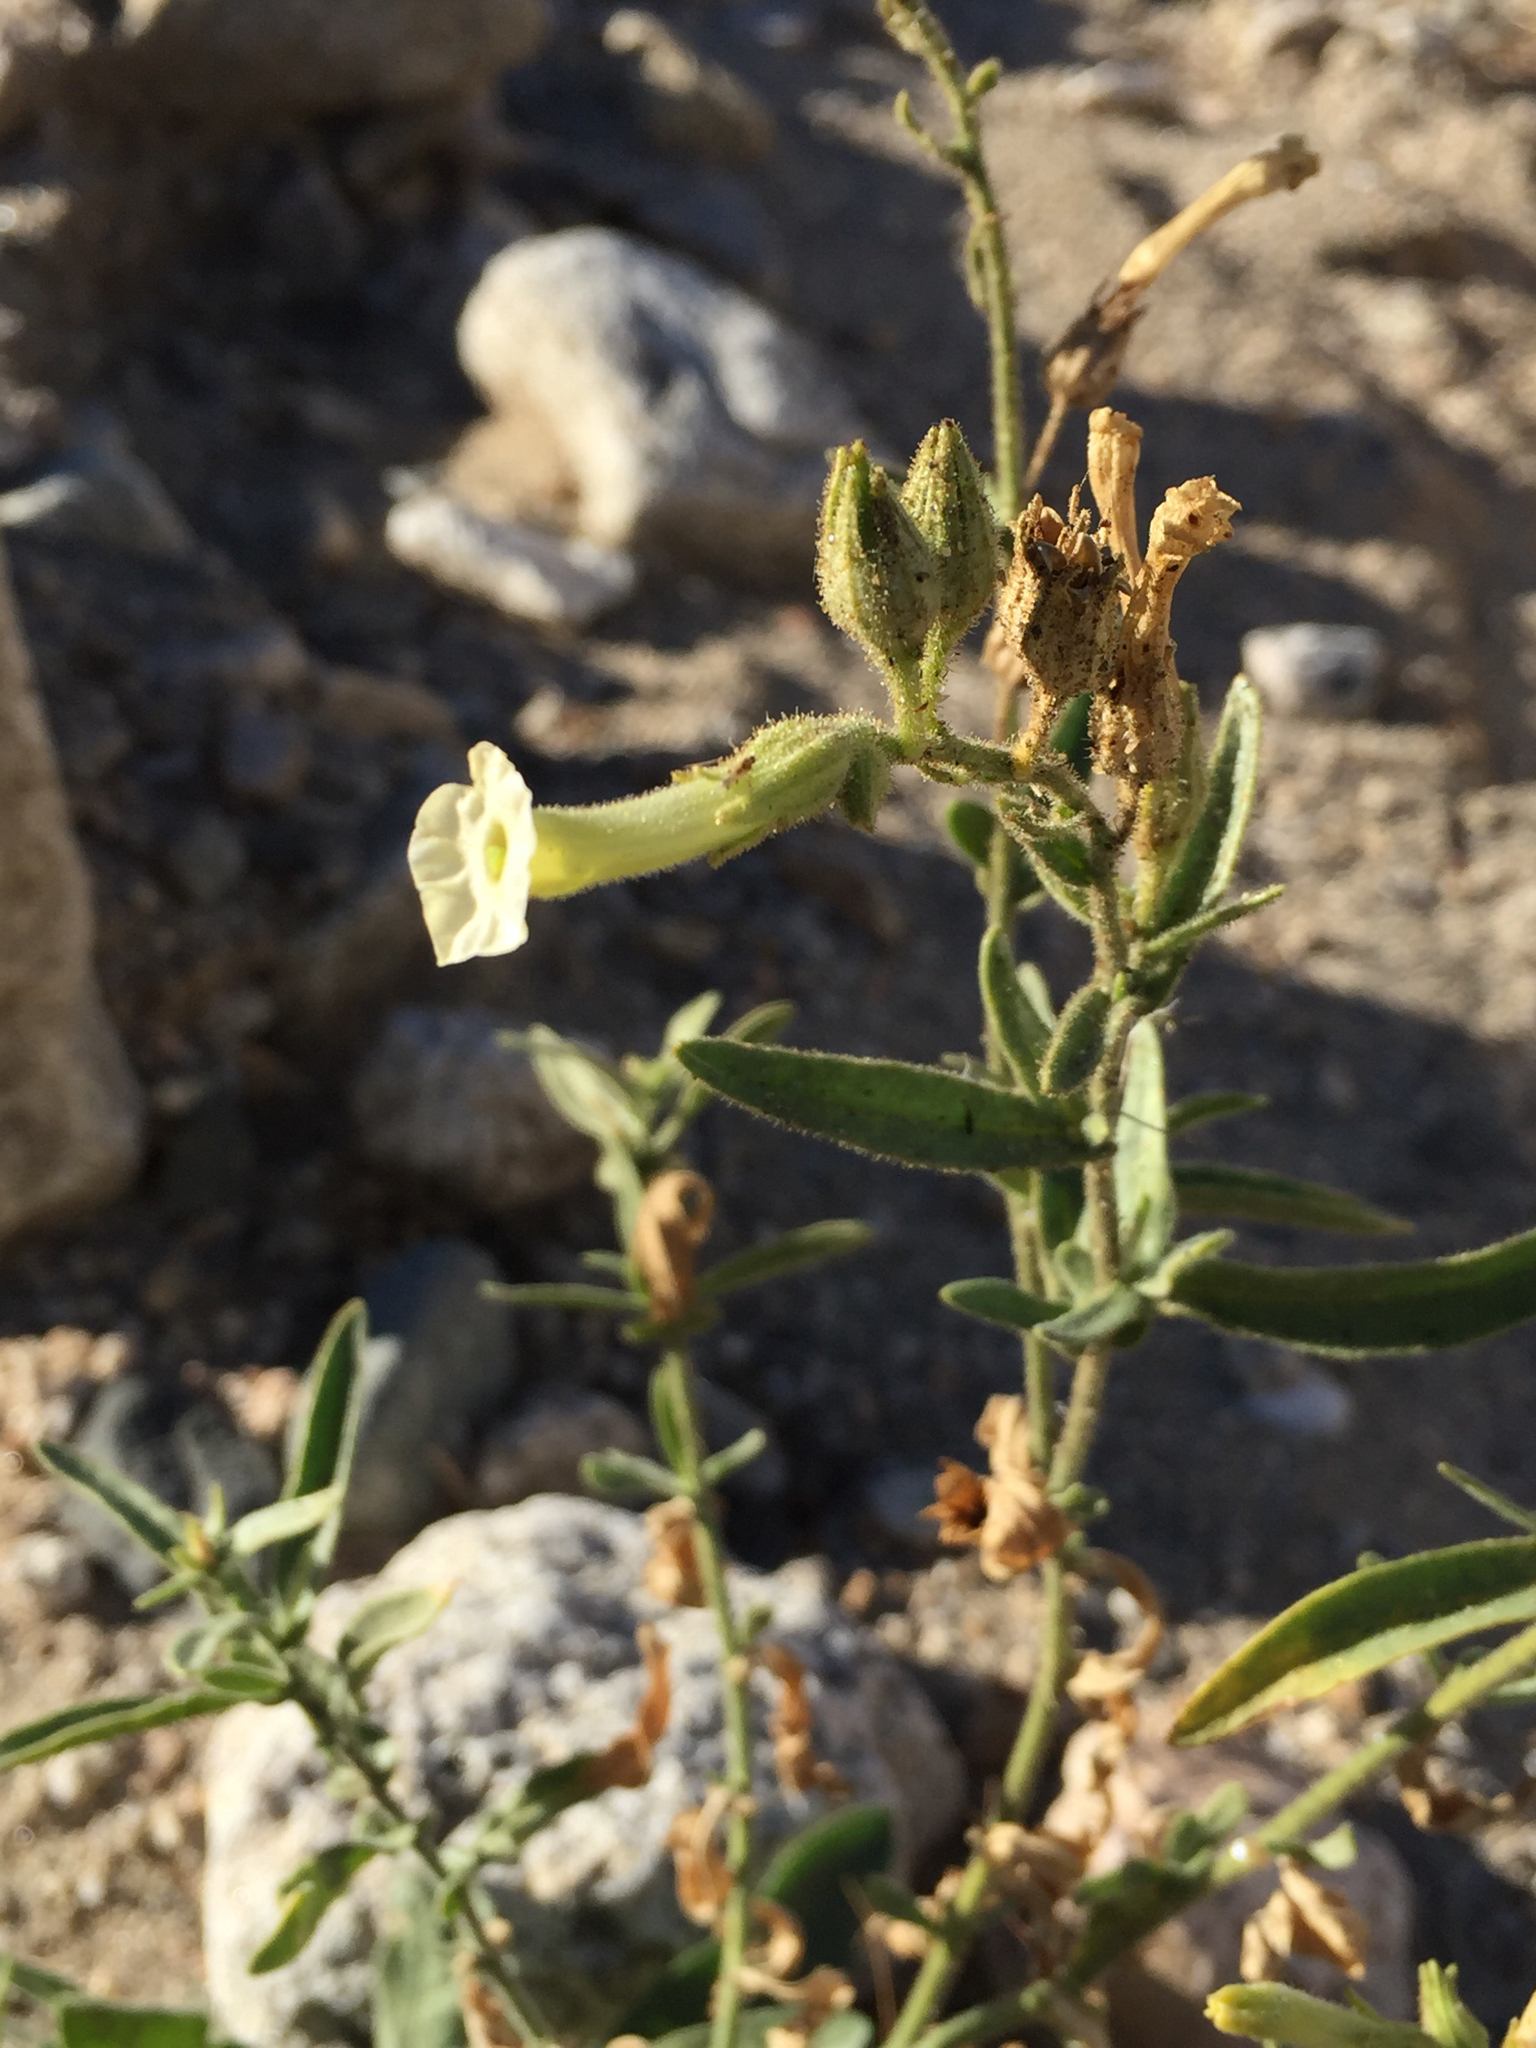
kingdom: Plantae
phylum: Tracheophyta
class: Magnoliopsida
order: Solanales
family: Solanaceae
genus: Nicotiana
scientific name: Nicotiana obtusifolia
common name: Desert tobacco
